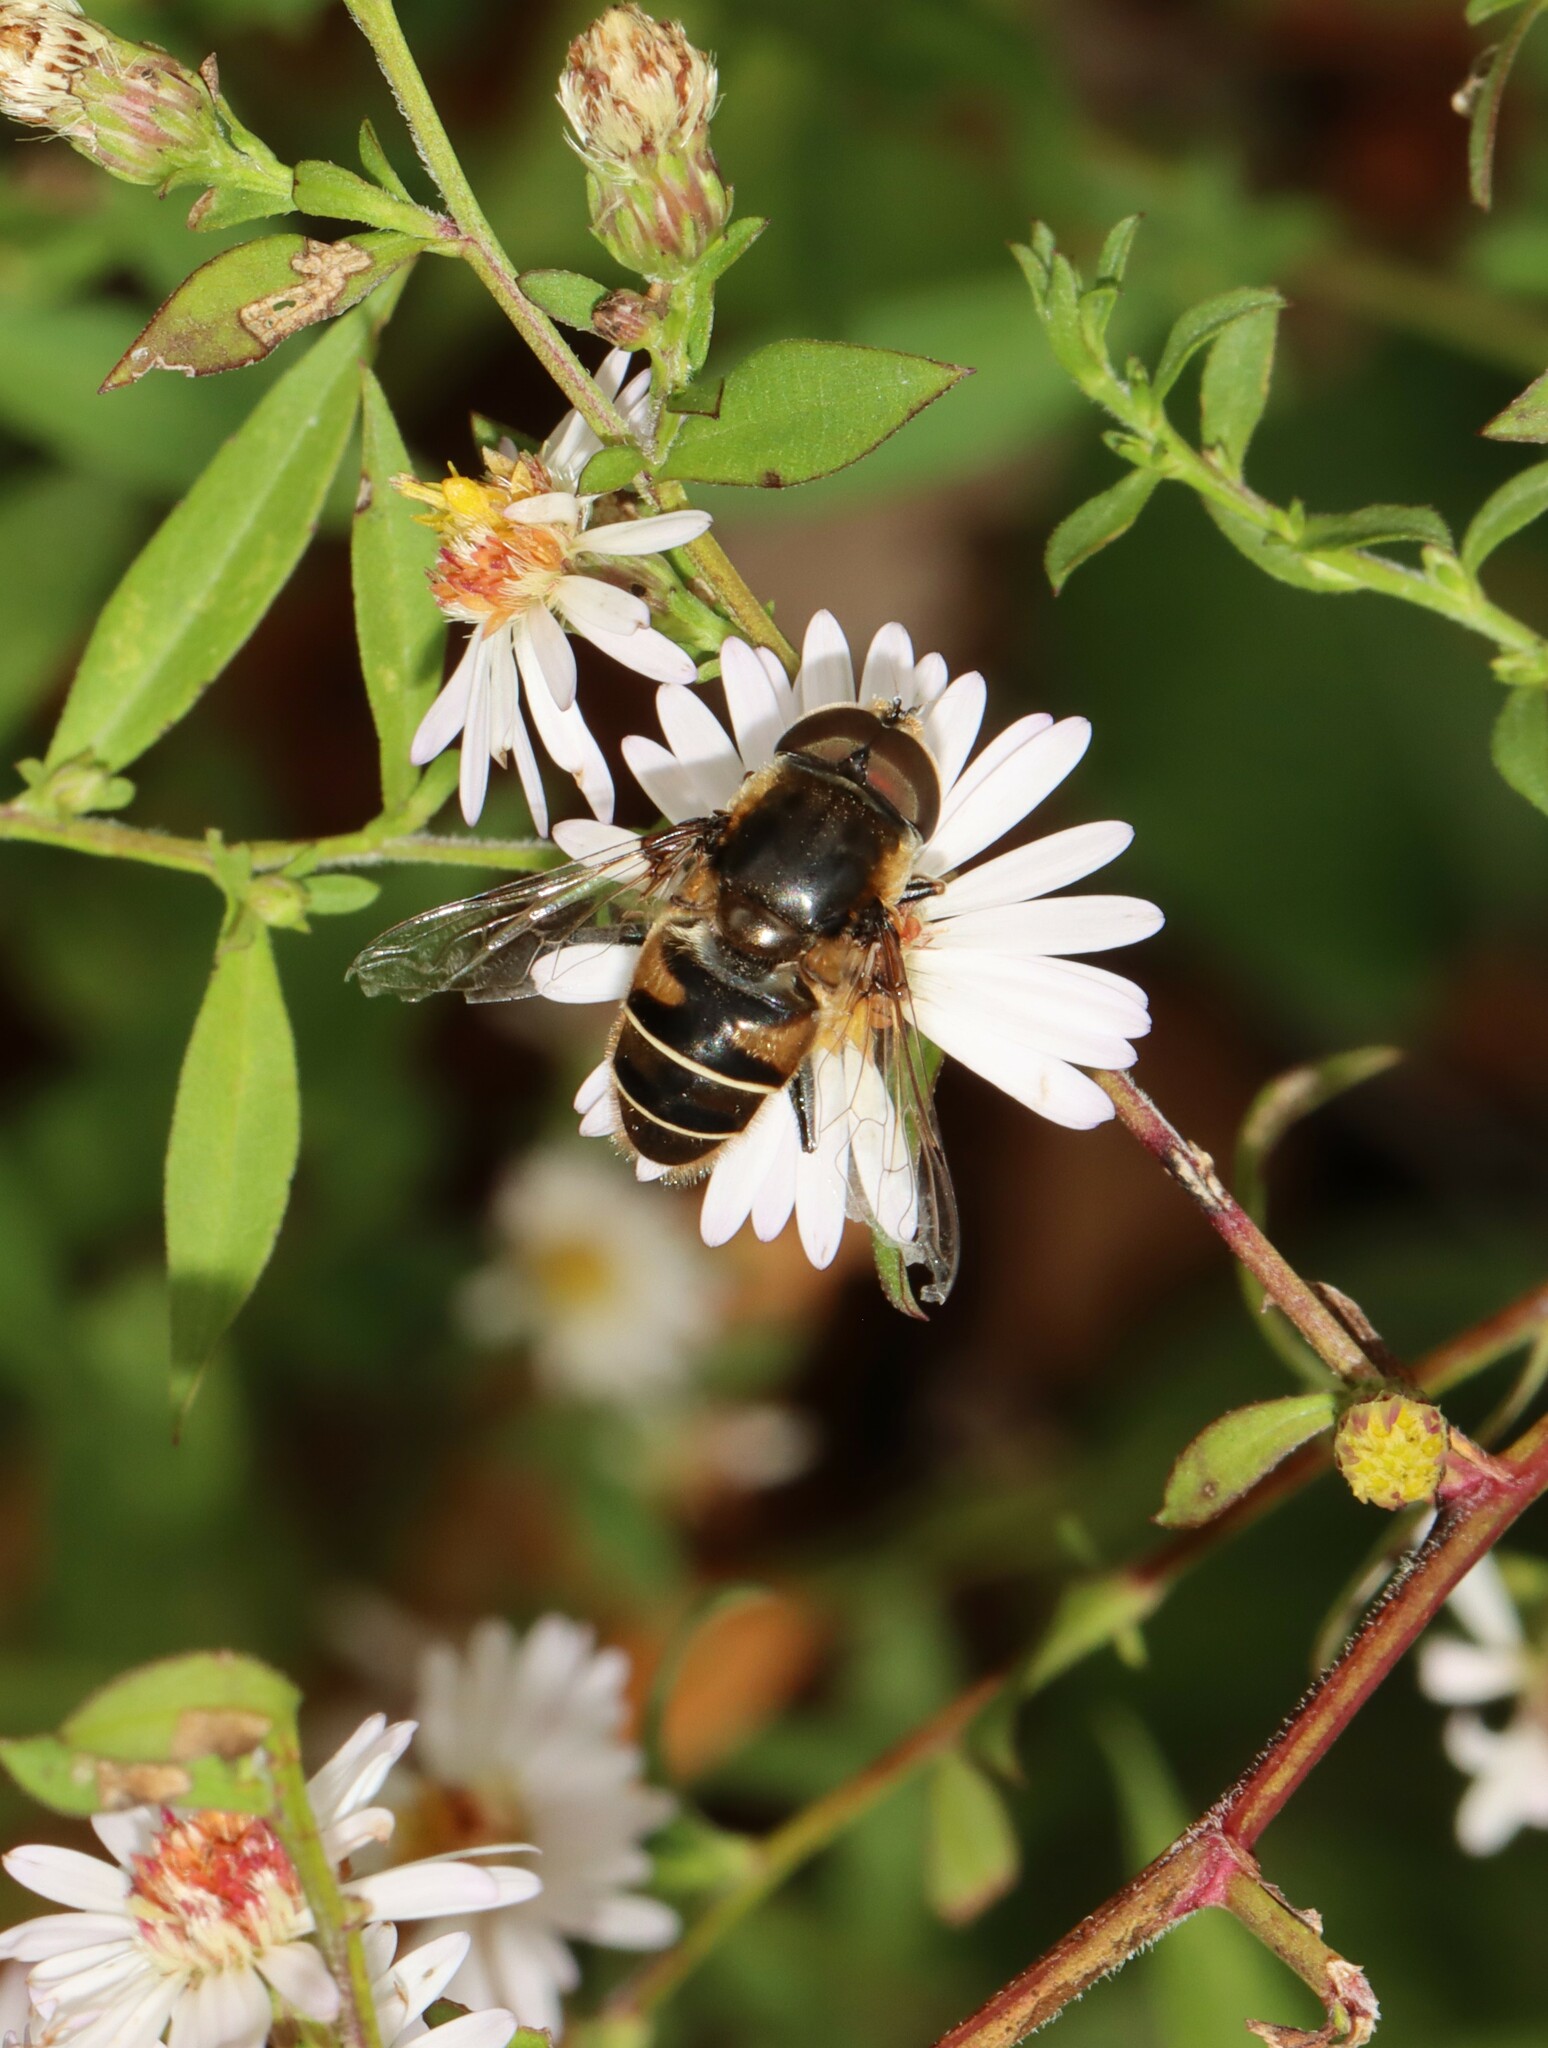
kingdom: Animalia
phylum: Arthropoda
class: Insecta
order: Diptera
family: Syrphidae
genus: Eristalis
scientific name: Eristalis dimidiata
